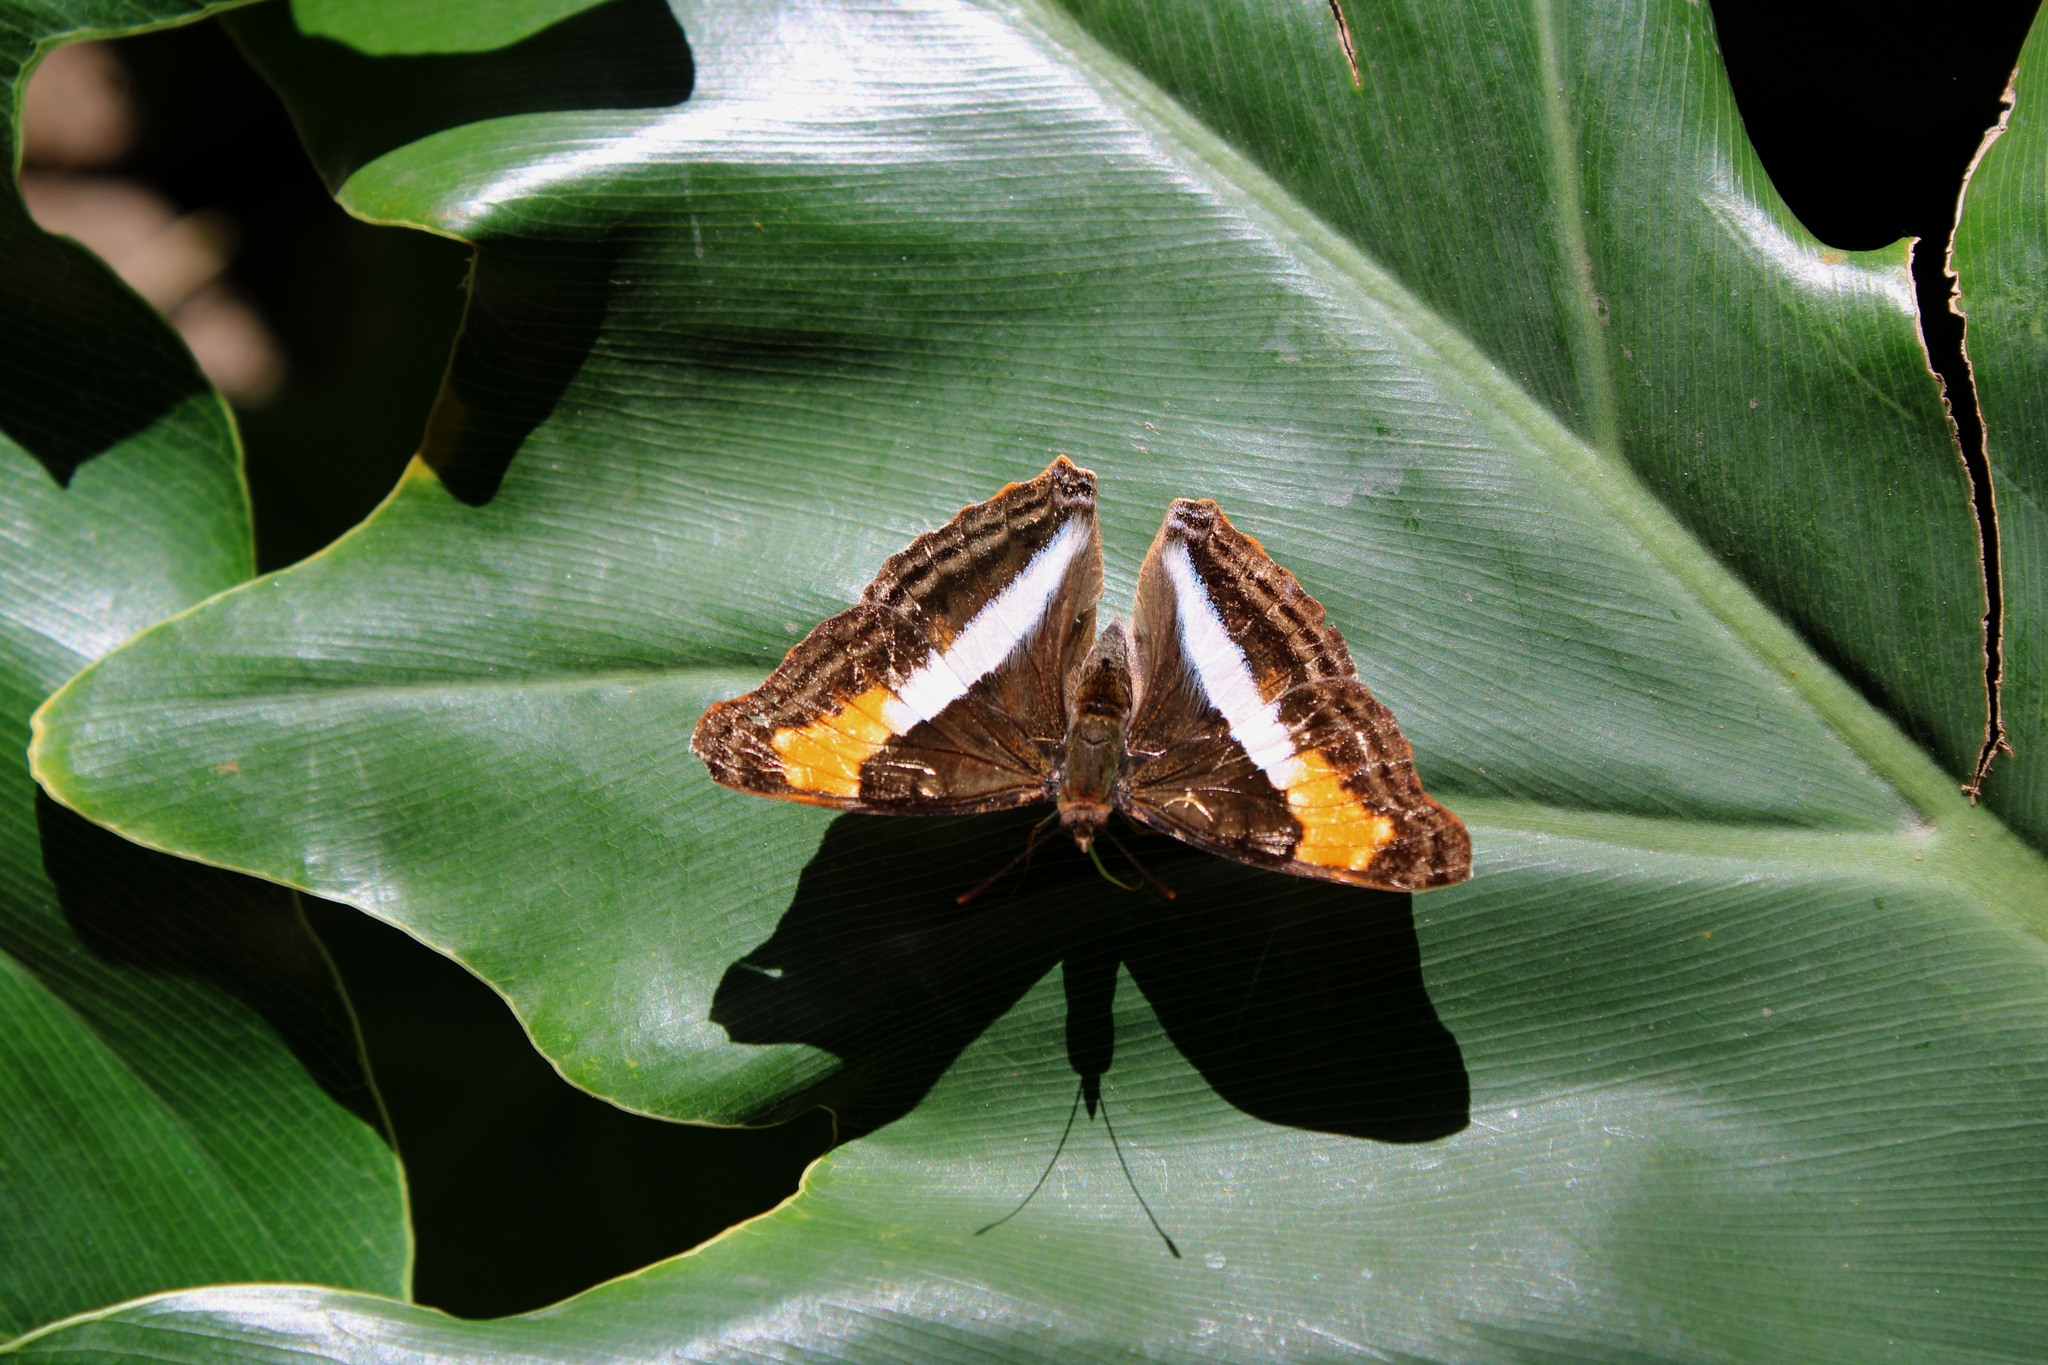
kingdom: Animalia
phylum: Arthropoda
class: Insecta
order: Lepidoptera
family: Nymphalidae
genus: Doxocopa
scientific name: Doxocopa laurentia
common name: Turquoise emperor
